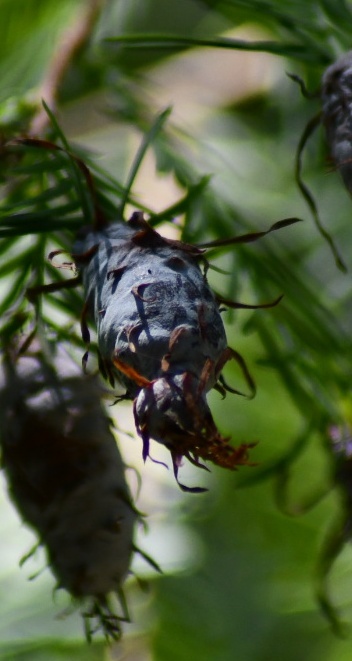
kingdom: Animalia
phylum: Arthropoda
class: Insecta
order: Diptera
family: Cecidomyiidae
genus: Taxodiomyia
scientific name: Taxodiomyia cupressiananassa
